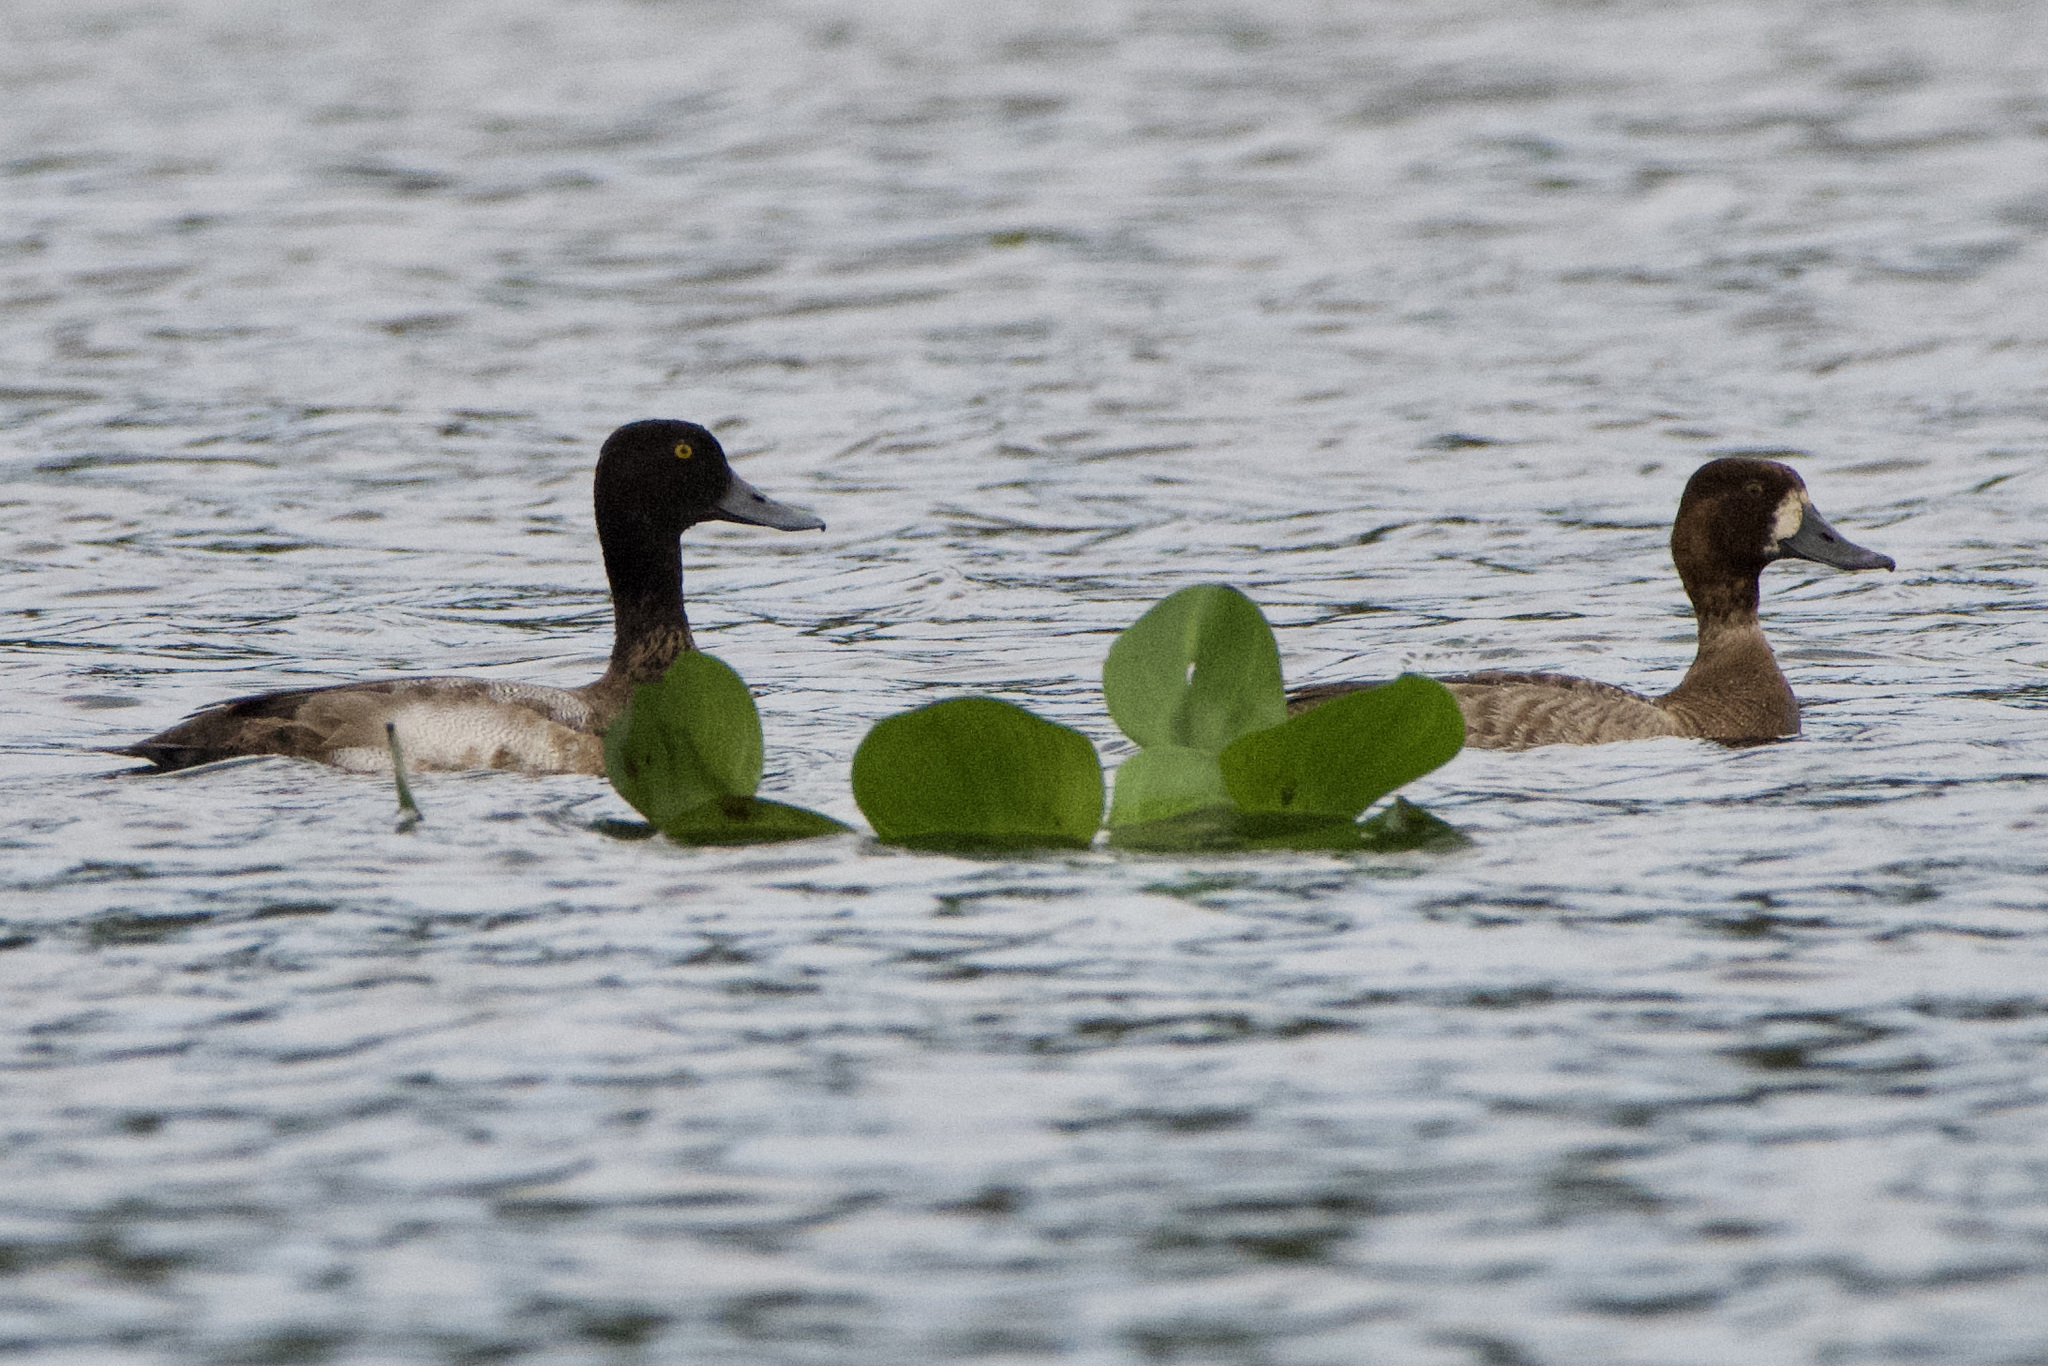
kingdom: Animalia
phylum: Chordata
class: Aves
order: Anseriformes
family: Anatidae
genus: Aythya
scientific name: Aythya affinis
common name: Lesser scaup
